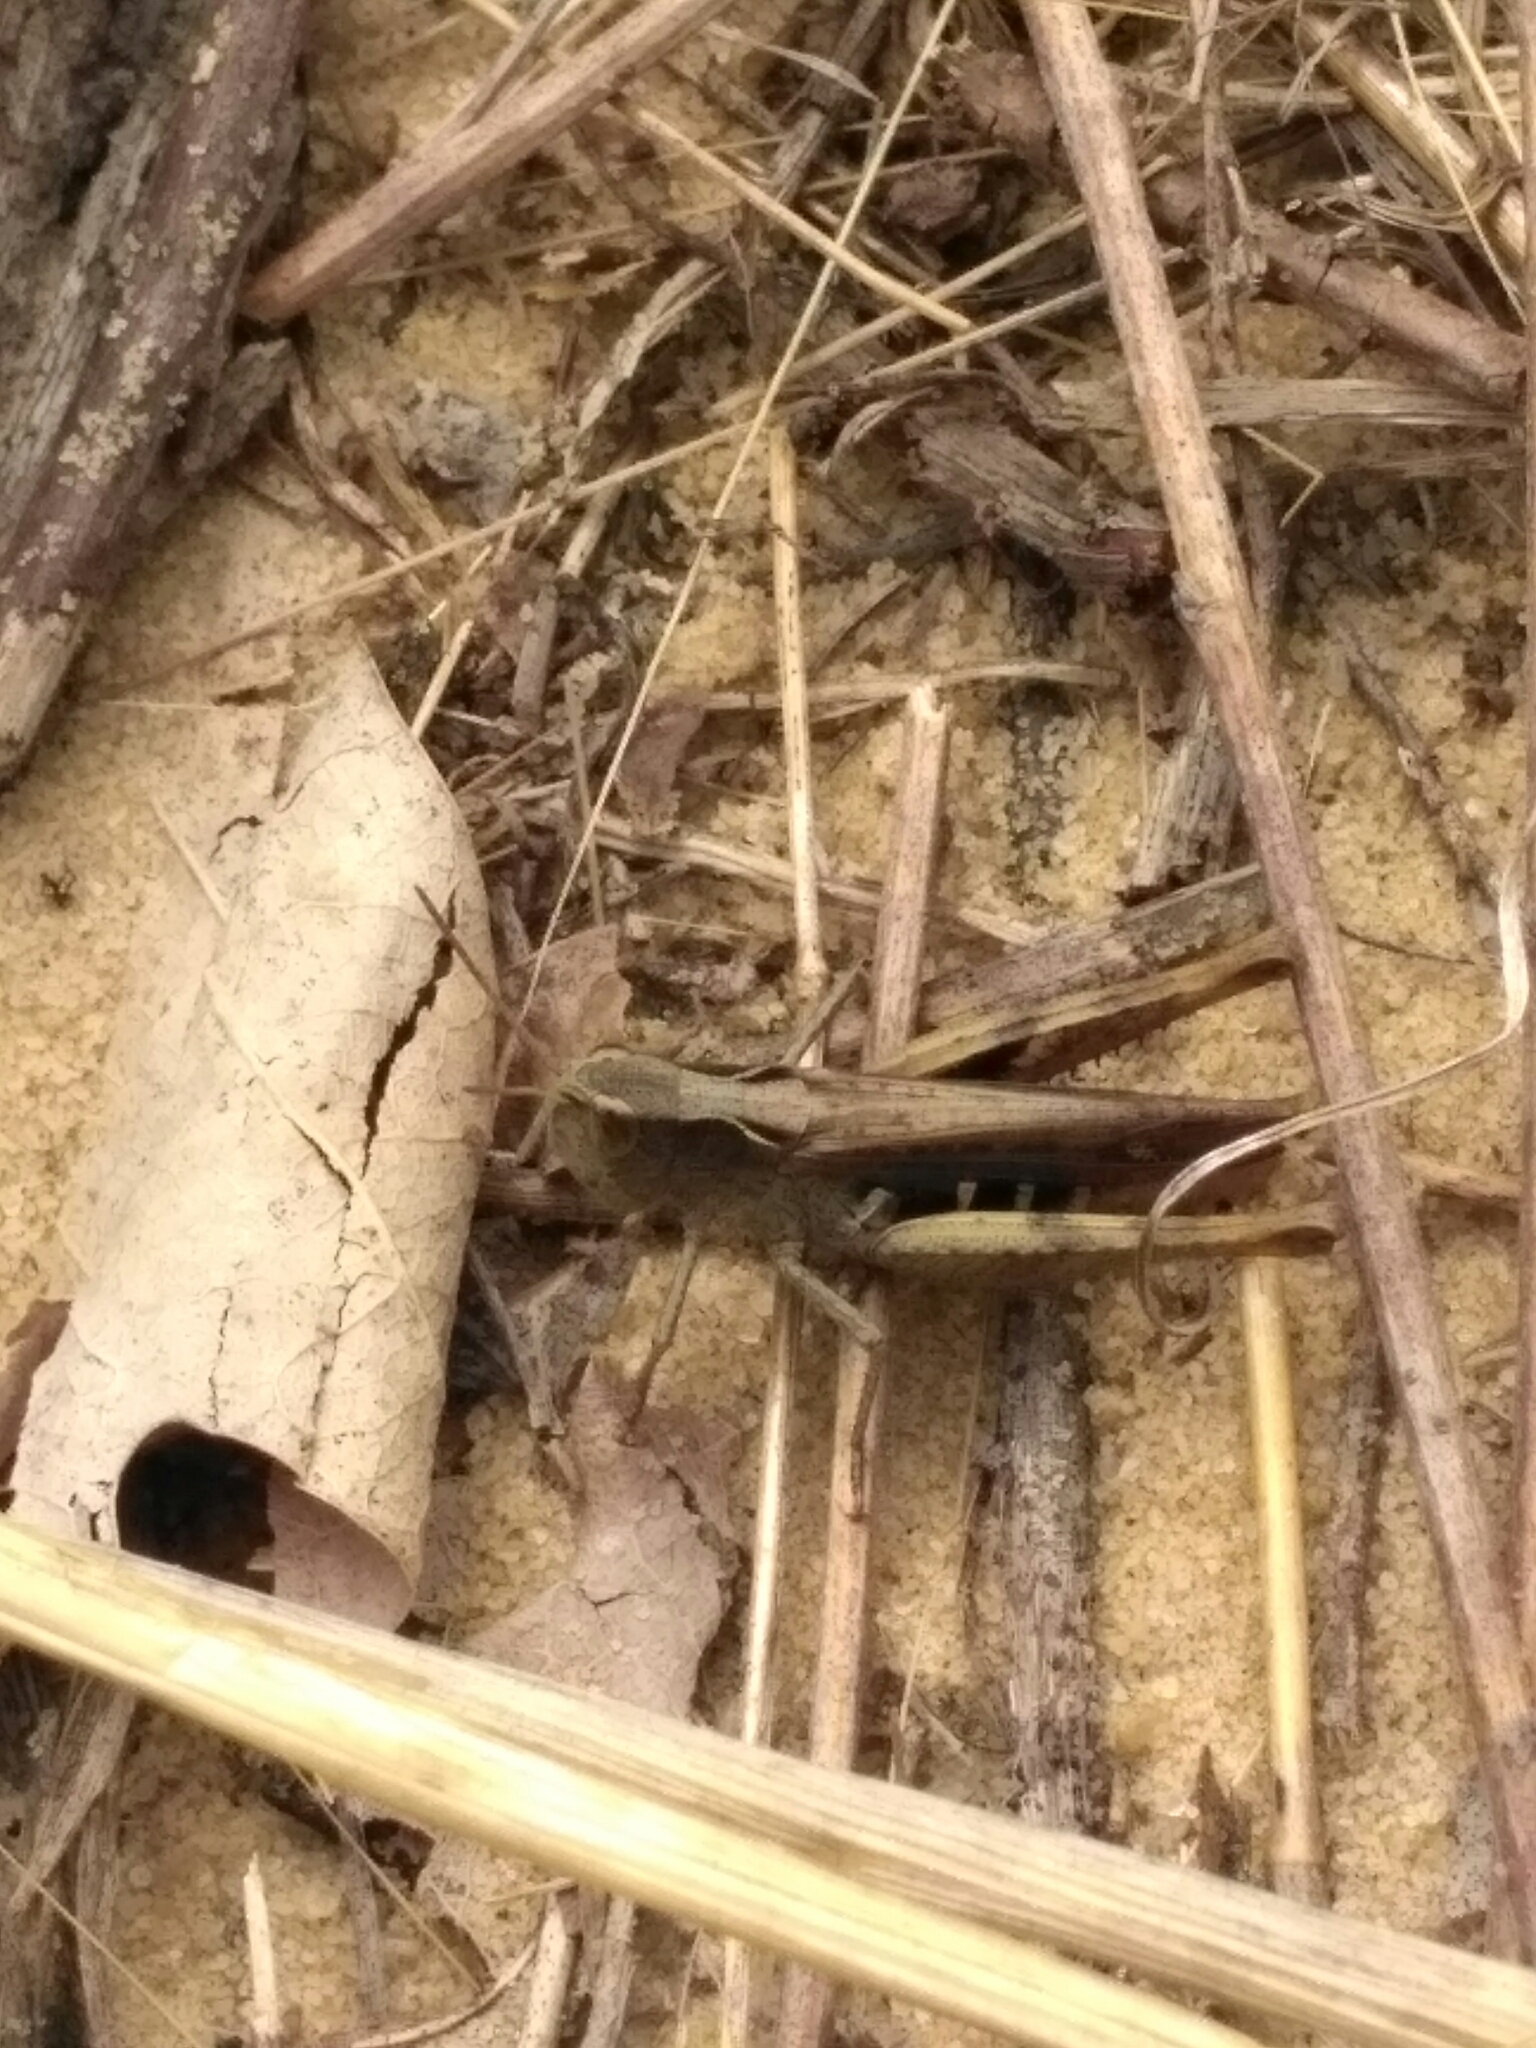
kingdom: Animalia
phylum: Arthropoda
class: Insecta
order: Orthoptera
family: Acrididae
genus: Chorthippus
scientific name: Chorthippus vagans
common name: Heath grasshopper
